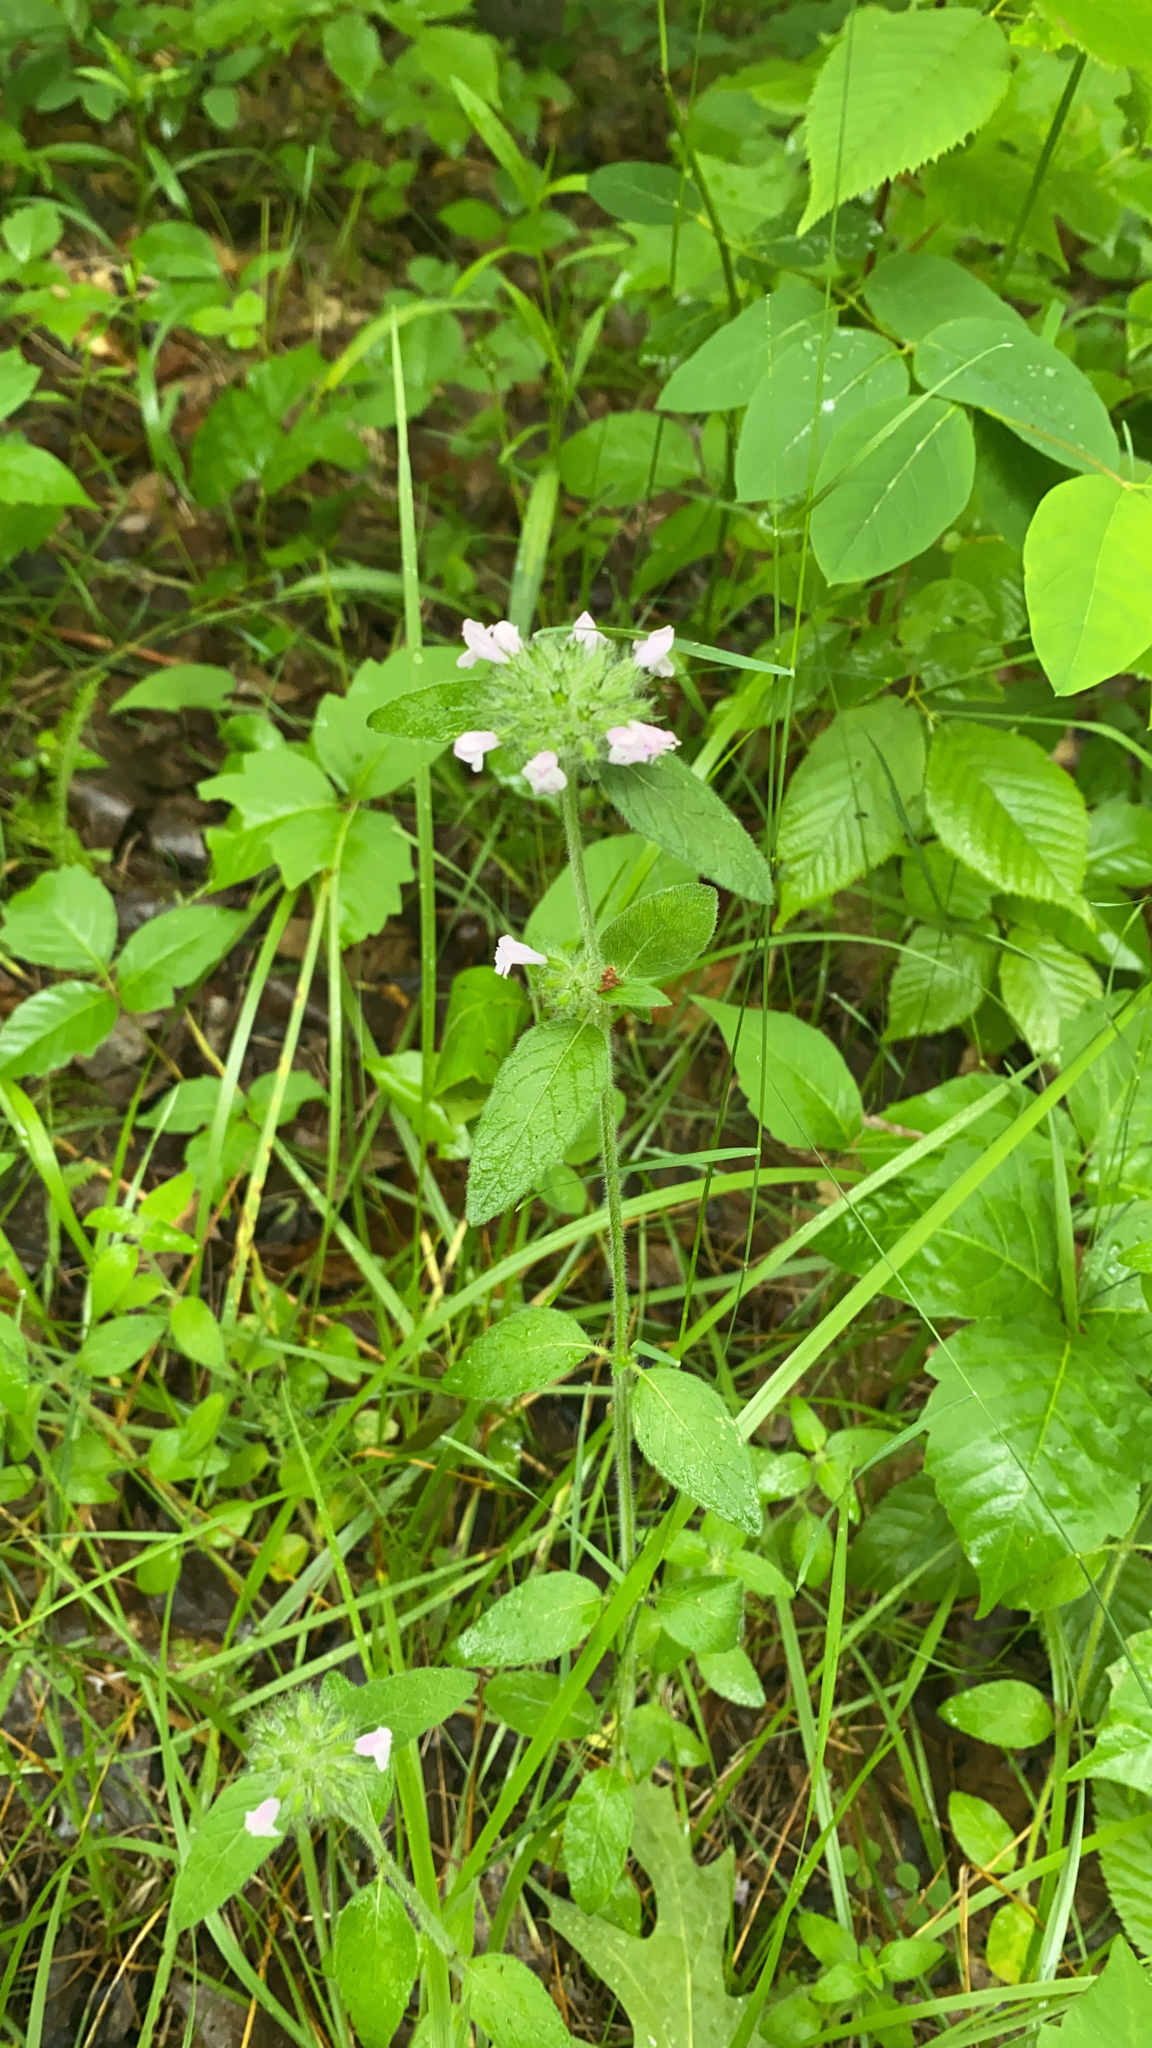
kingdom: Plantae
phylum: Tracheophyta
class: Magnoliopsida
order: Lamiales
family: Lamiaceae
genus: Clinopodium
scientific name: Clinopodium vulgare
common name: Wild basil
